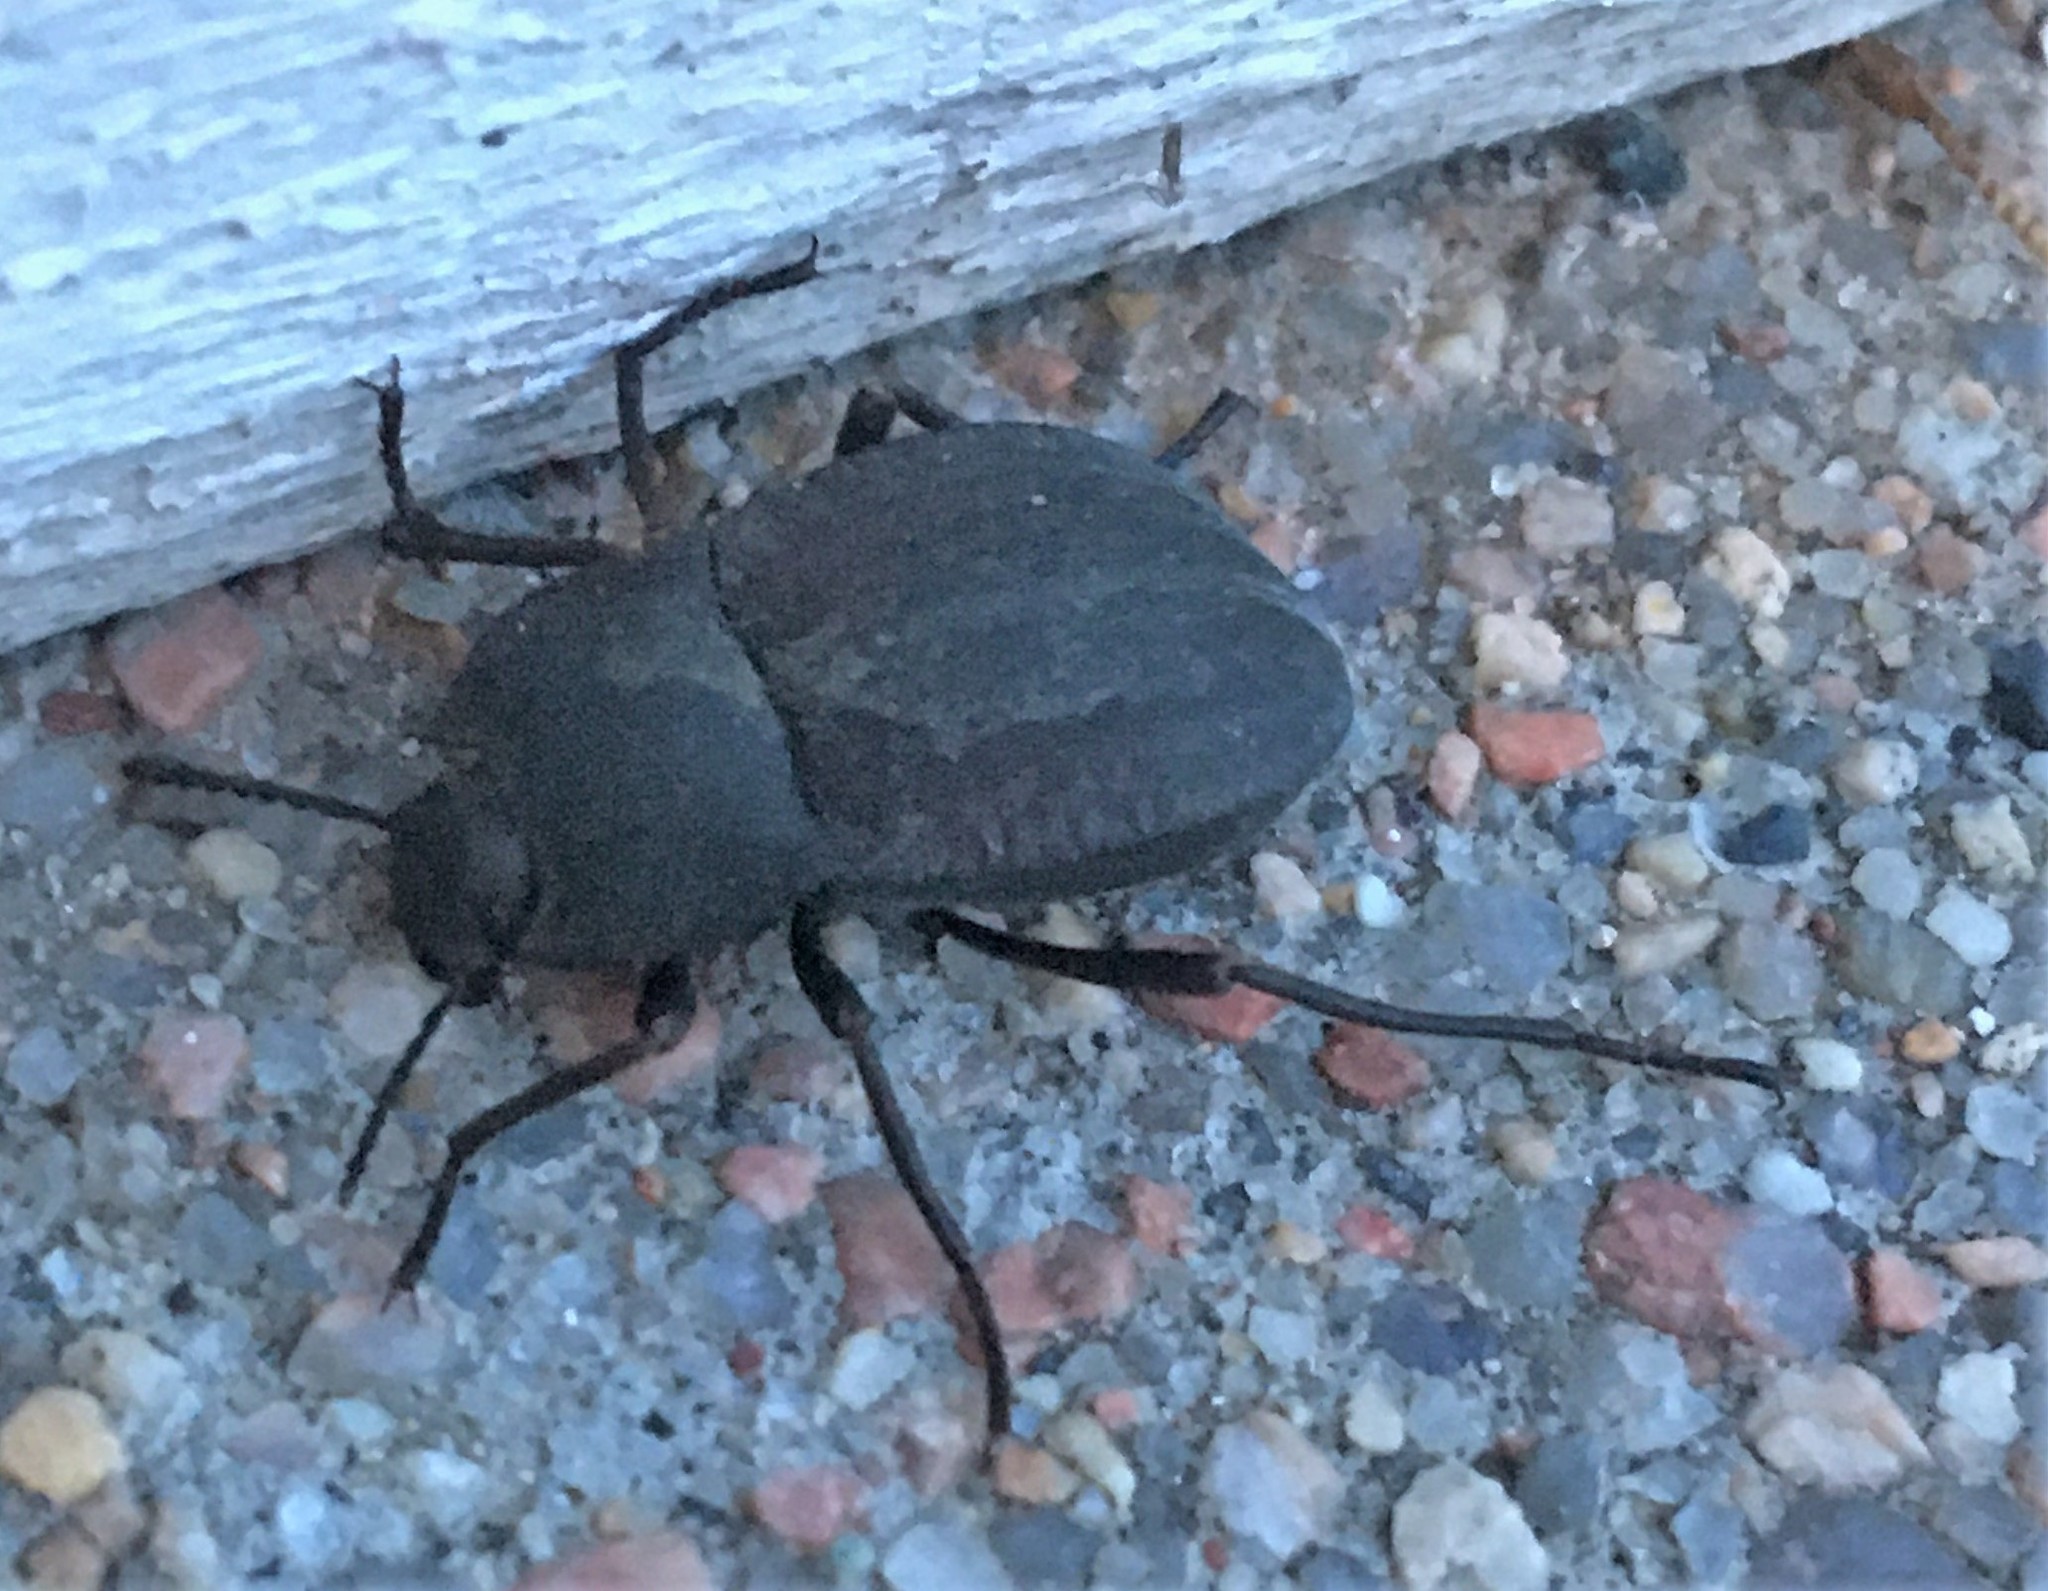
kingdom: Animalia
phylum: Arthropoda
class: Insecta
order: Coleoptera
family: Tenebrionidae
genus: Stenomorpha
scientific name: Stenomorpha opaca
